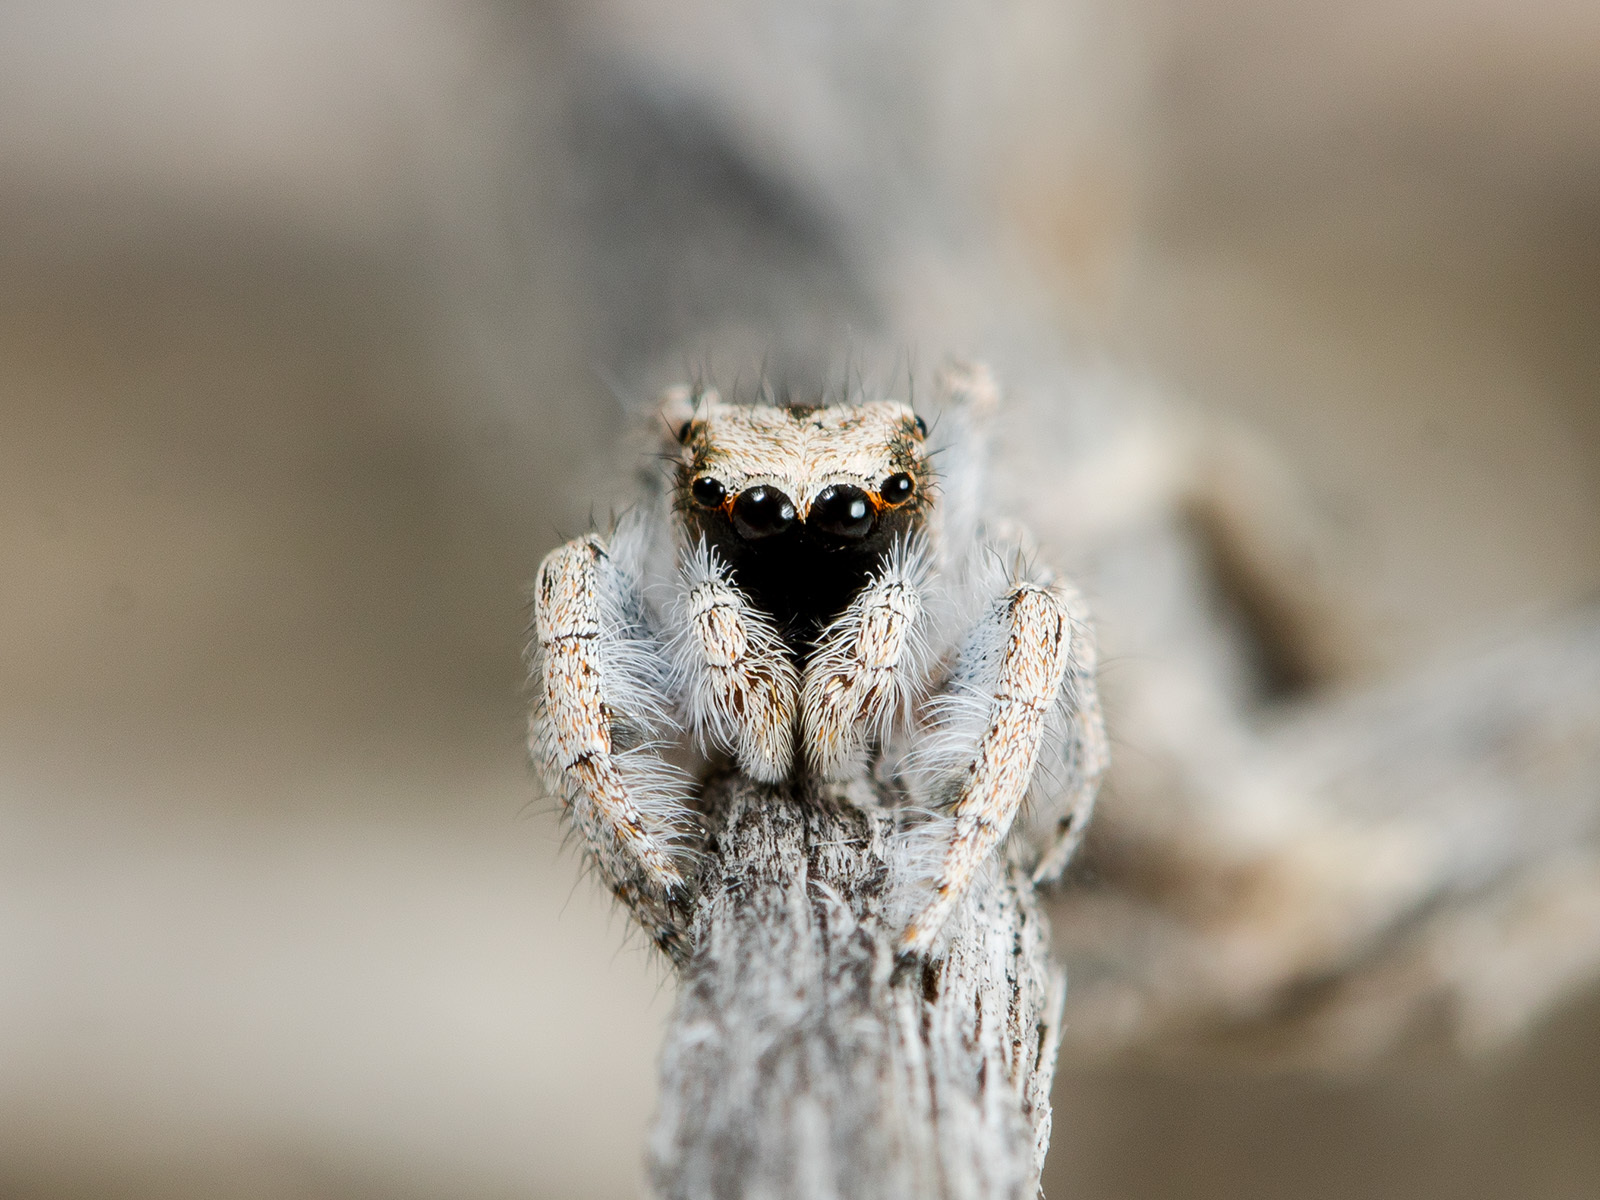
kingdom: Animalia
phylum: Arthropoda
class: Arachnida
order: Araneae
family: Salticidae
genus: Marusyllus
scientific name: Marusyllus aralicus
